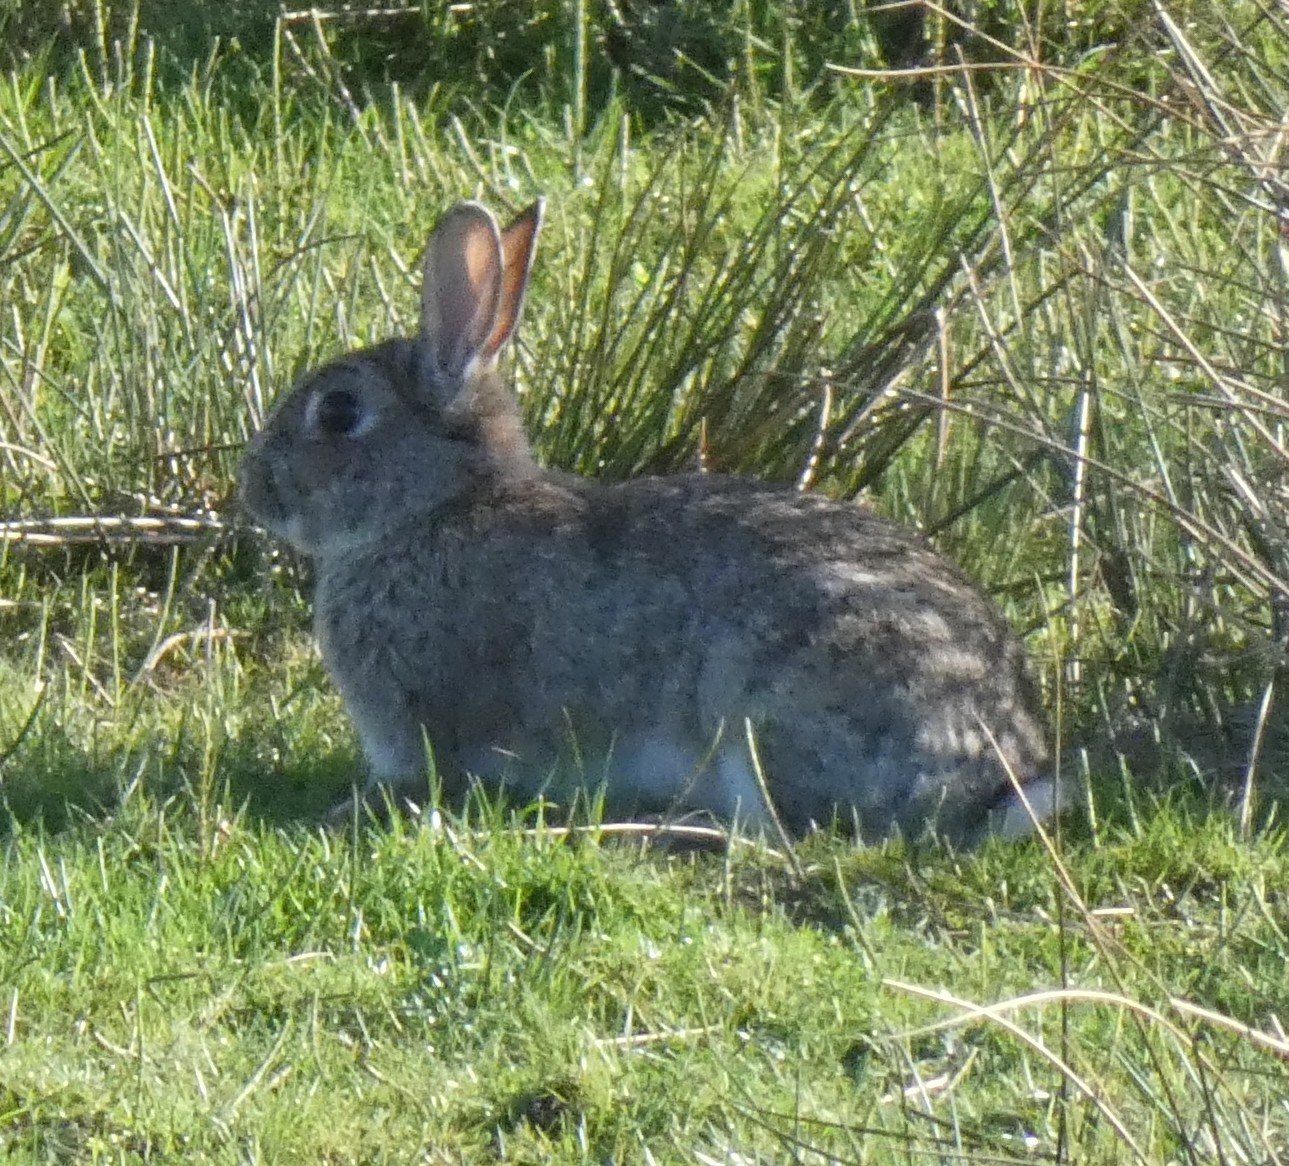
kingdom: Animalia
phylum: Chordata
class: Mammalia
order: Lagomorpha
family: Leporidae
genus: Oryctolagus
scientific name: Oryctolagus cuniculus
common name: European rabbit
